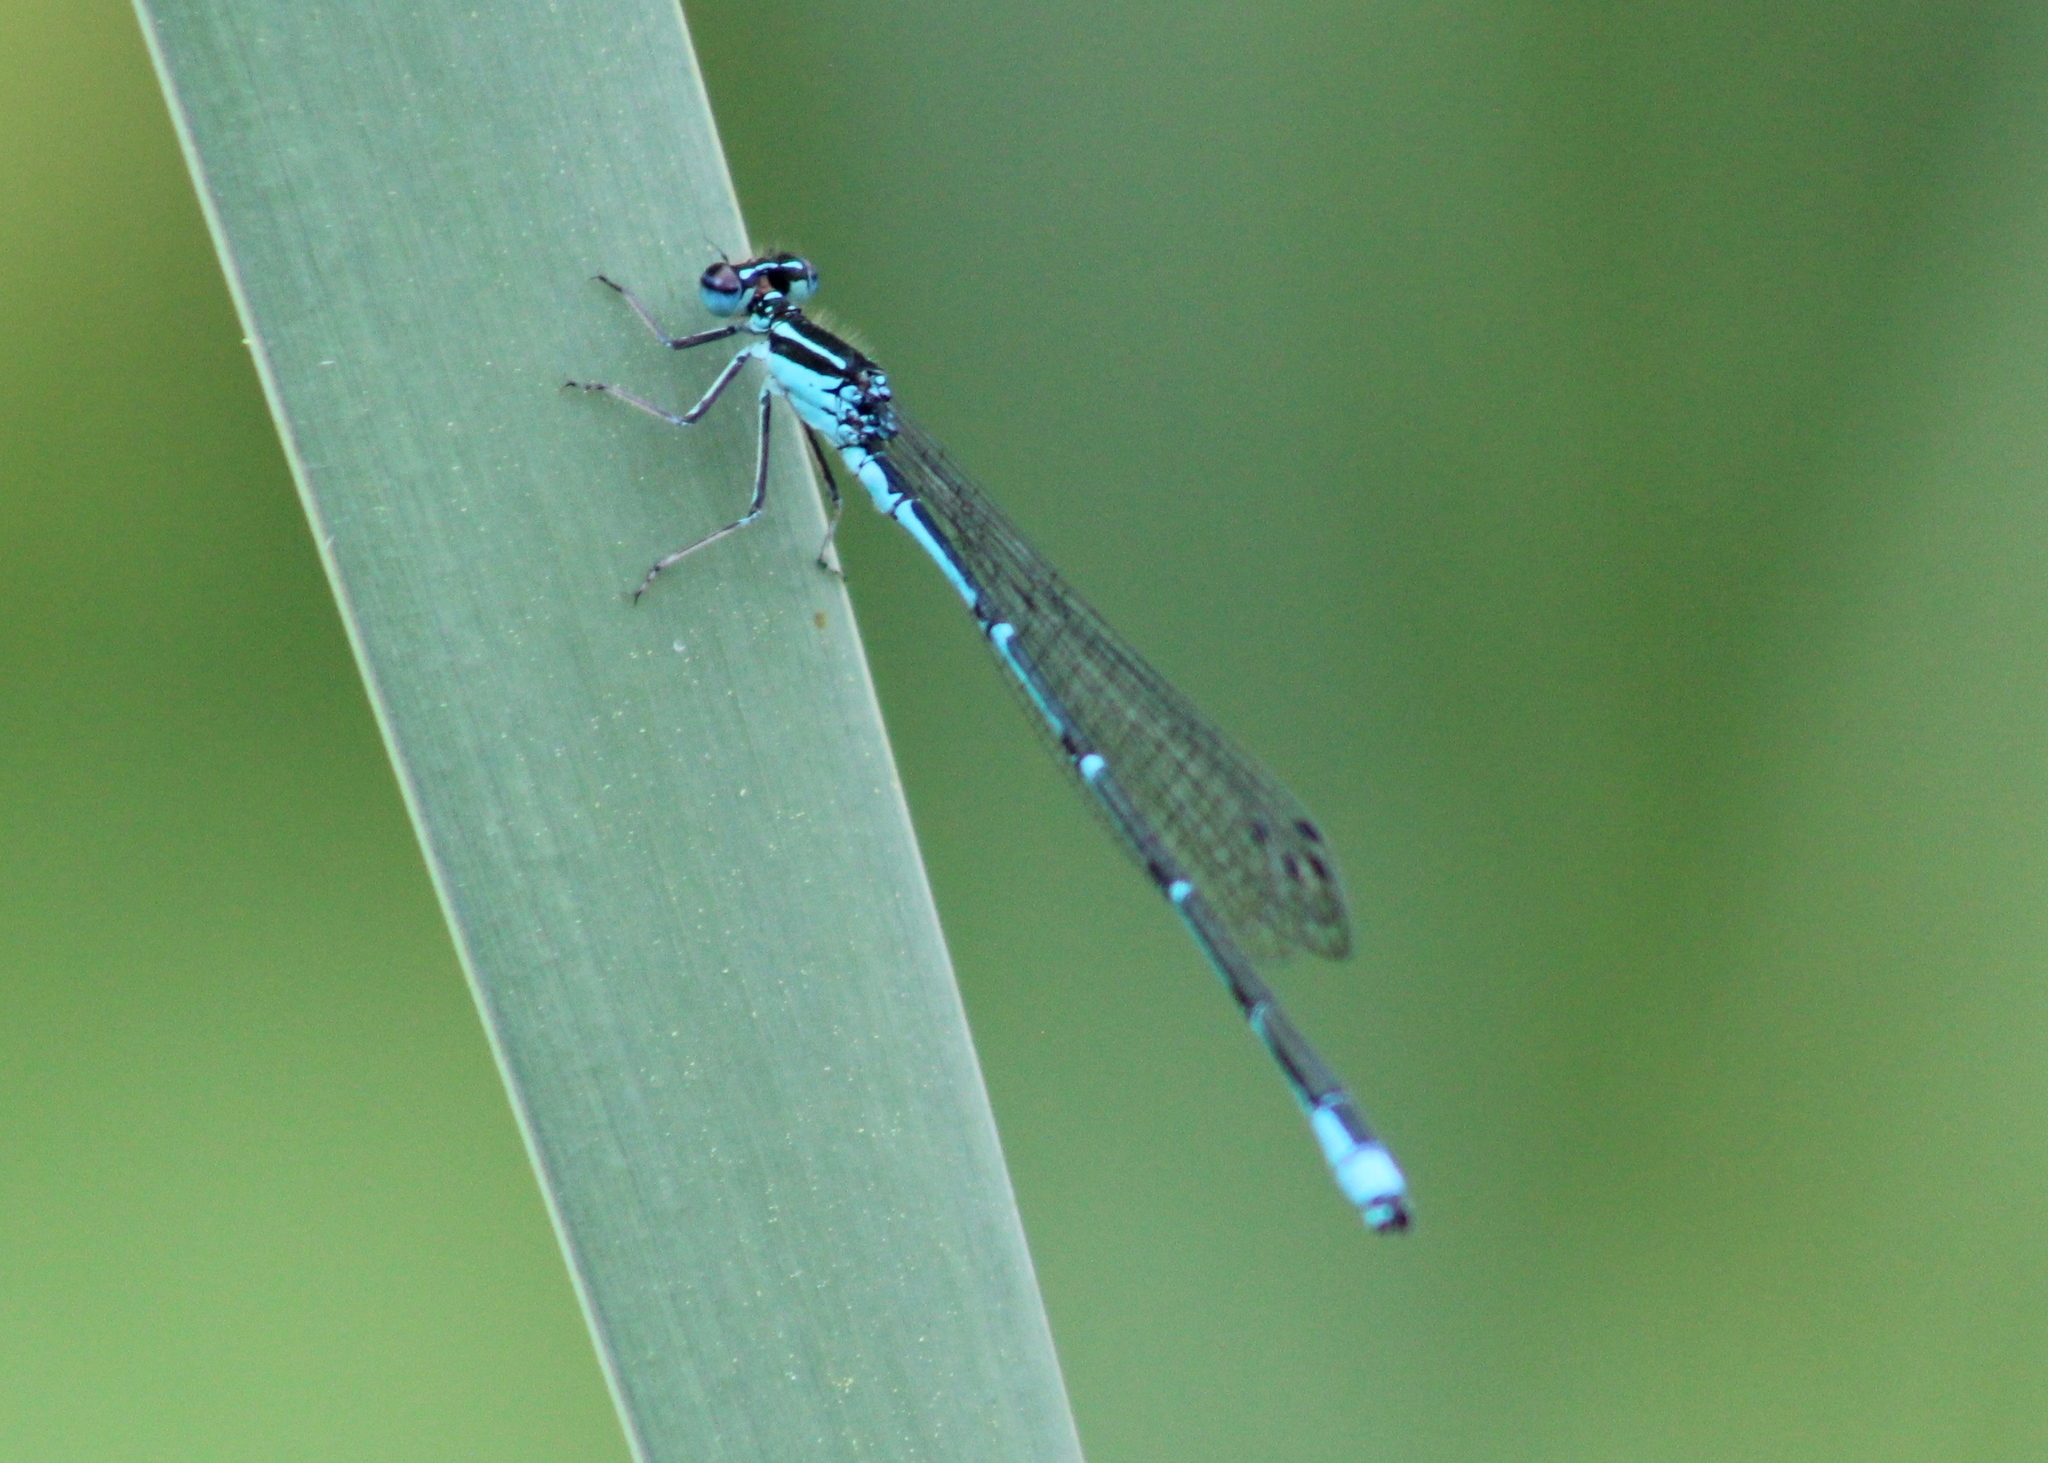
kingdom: Animalia
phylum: Arthropoda
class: Insecta
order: Odonata
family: Coenagrionidae
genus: Enallagma
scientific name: Enallagma exsulans
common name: Stream bluet
